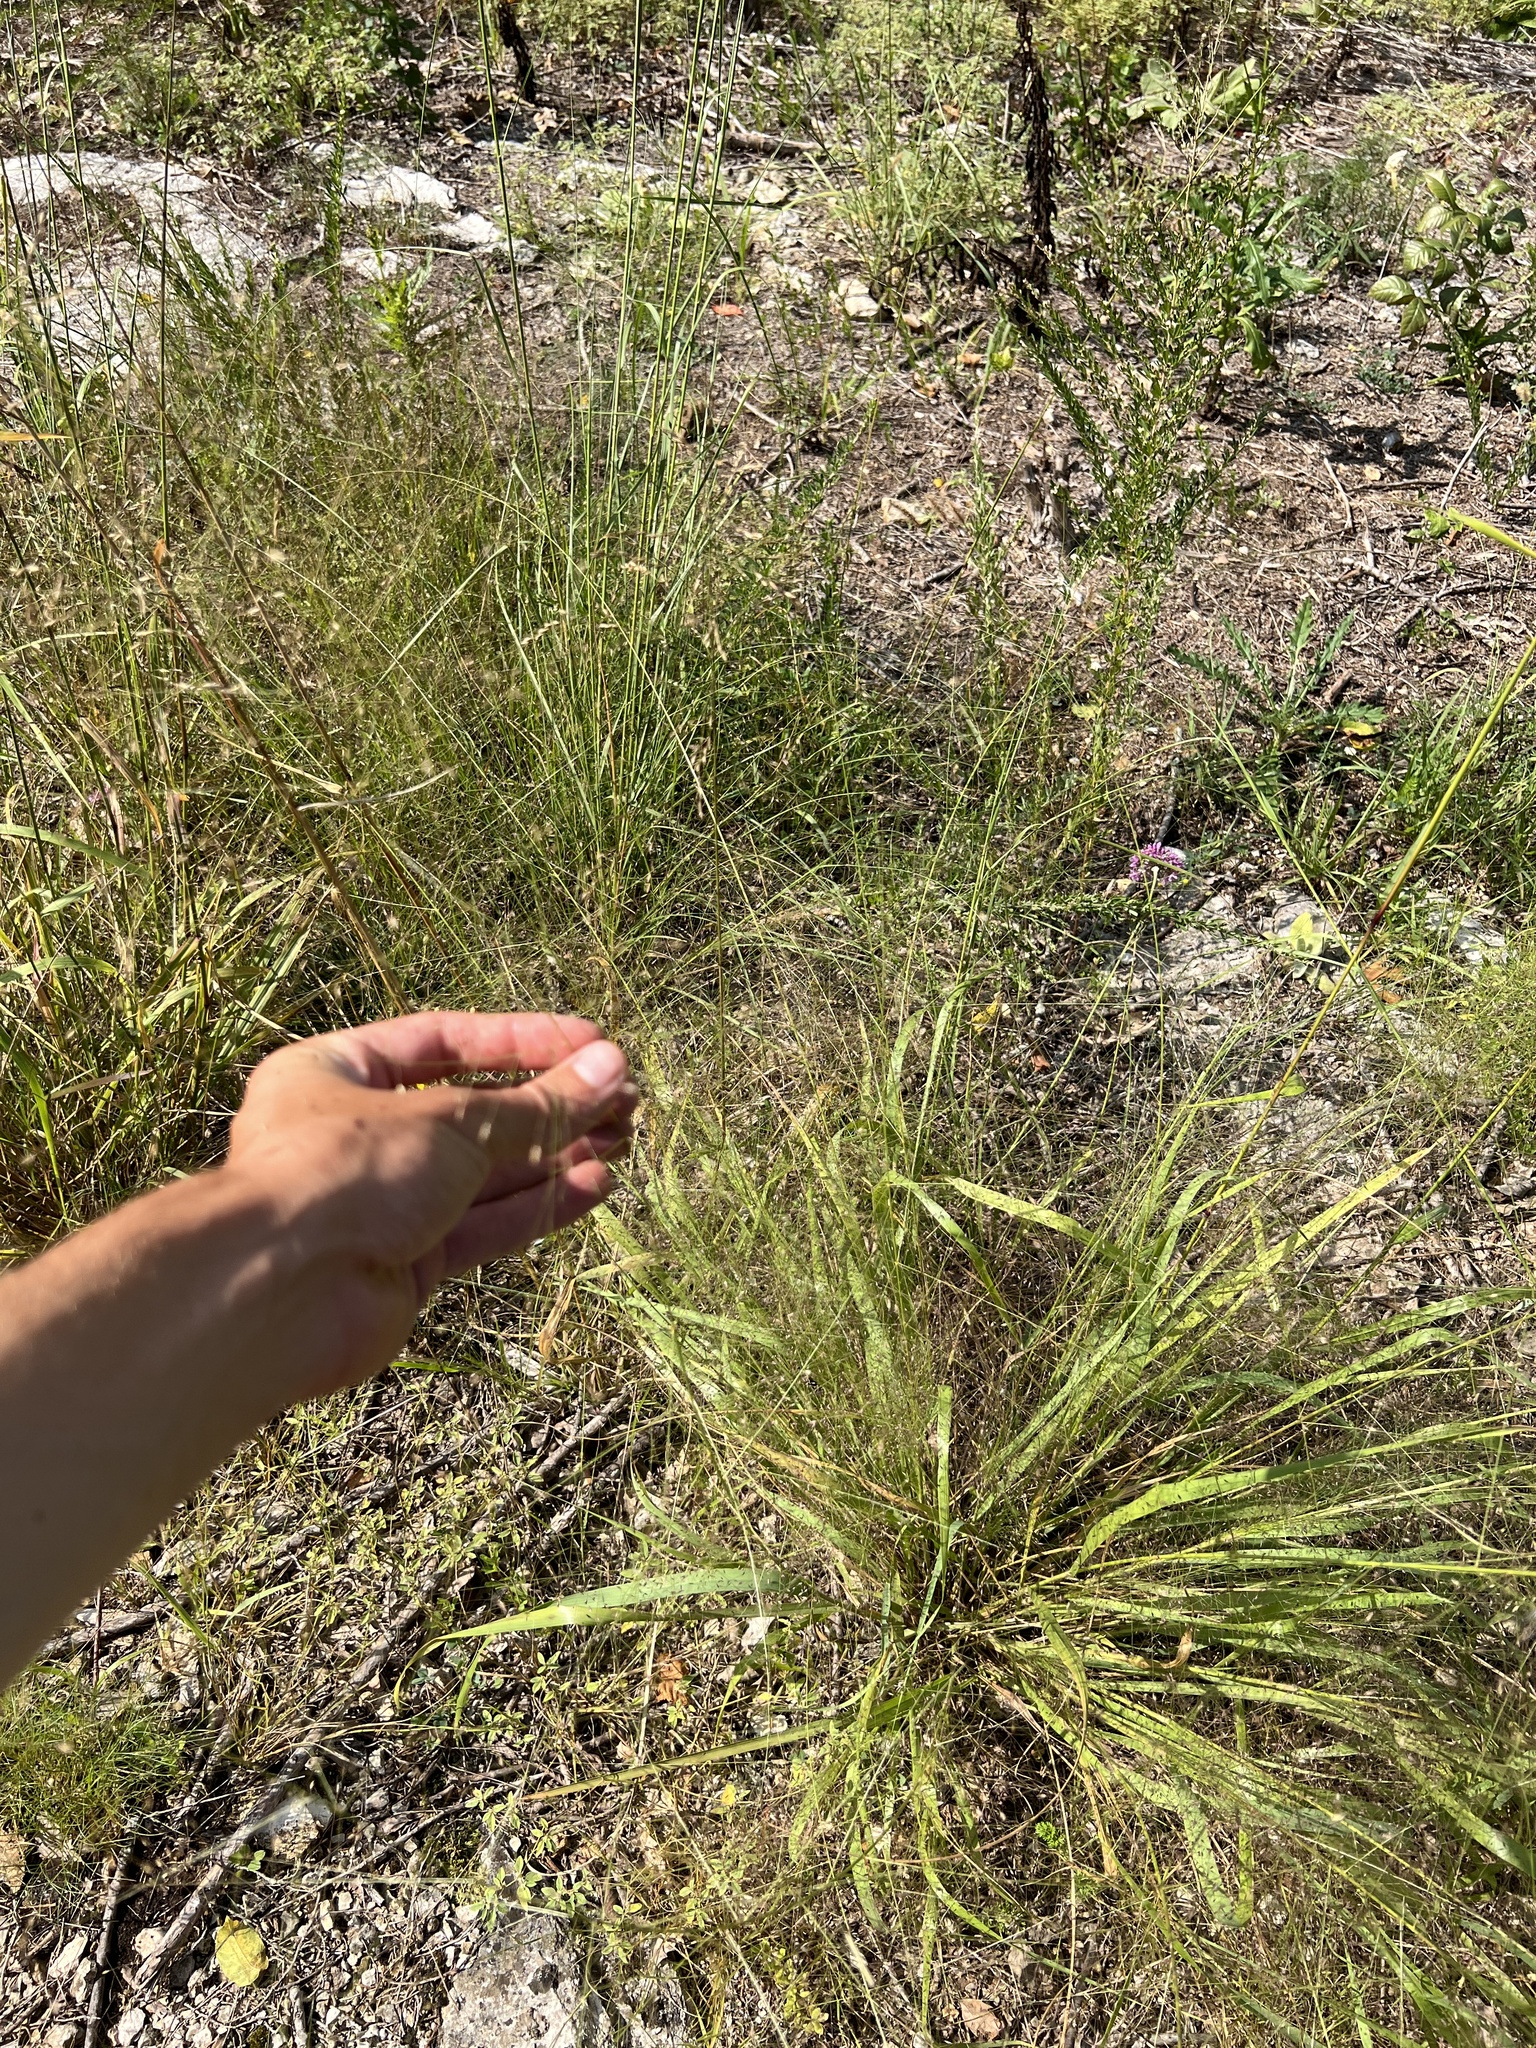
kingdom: Plantae
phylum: Tracheophyta
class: Liliopsida
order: Poales
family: Poaceae
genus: Eragrostis
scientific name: Eragrostis hirsuta
